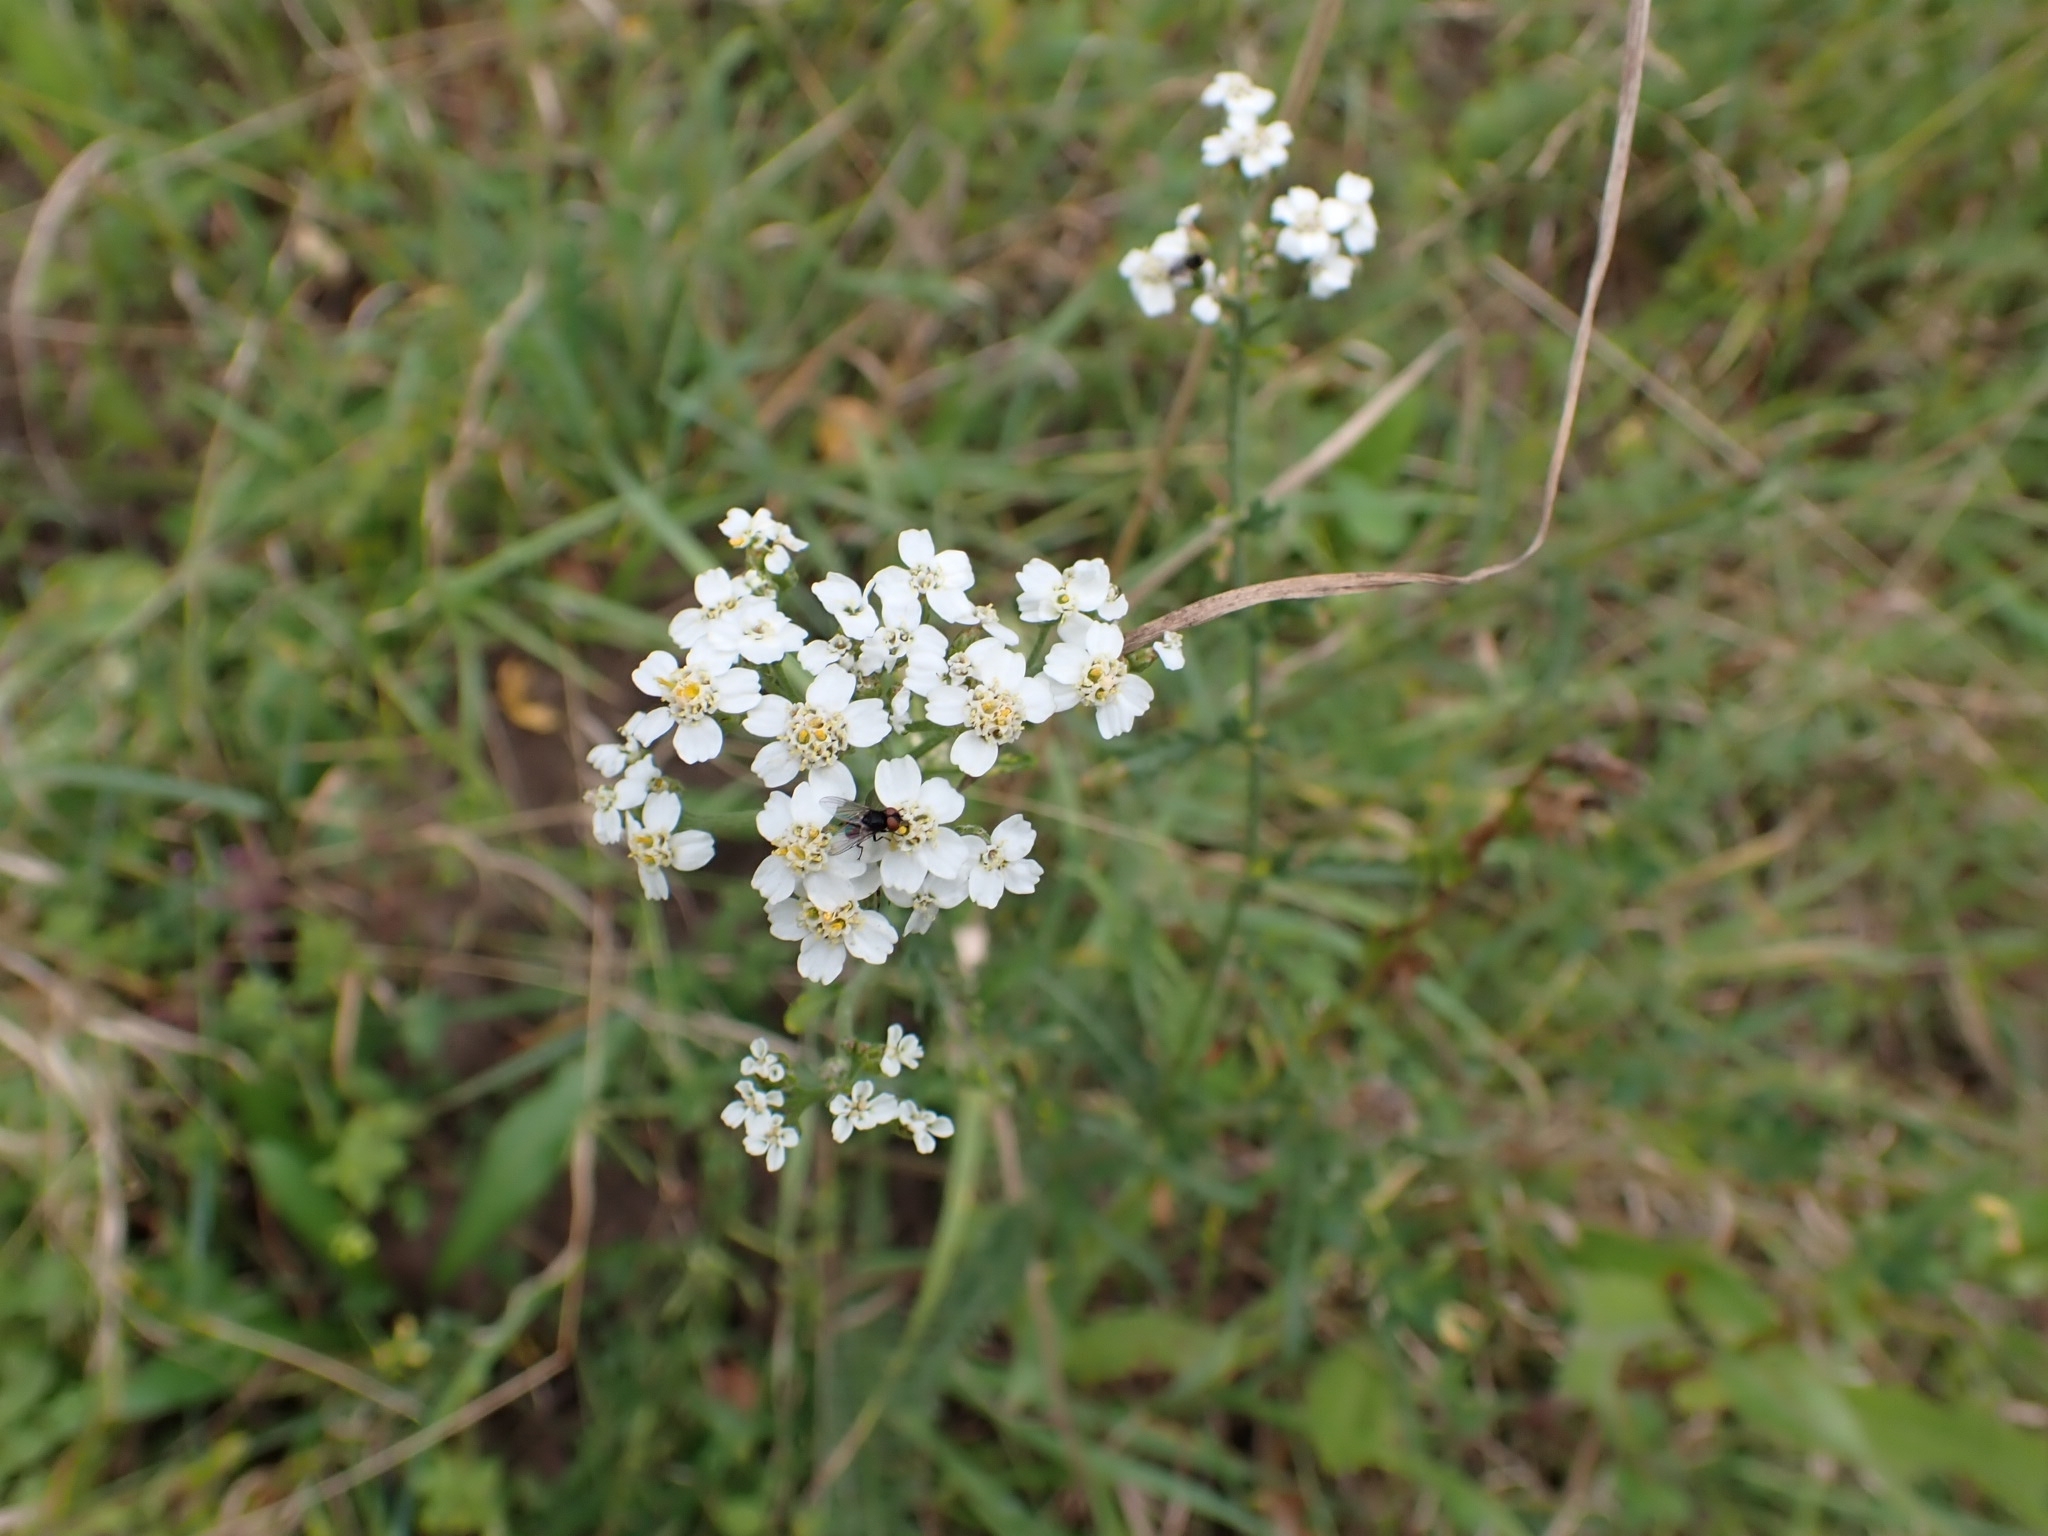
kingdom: Plantae
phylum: Tracheophyta
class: Magnoliopsida
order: Asterales
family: Asteraceae
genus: Achillea
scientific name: Achillea millefolium
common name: Yarrow
